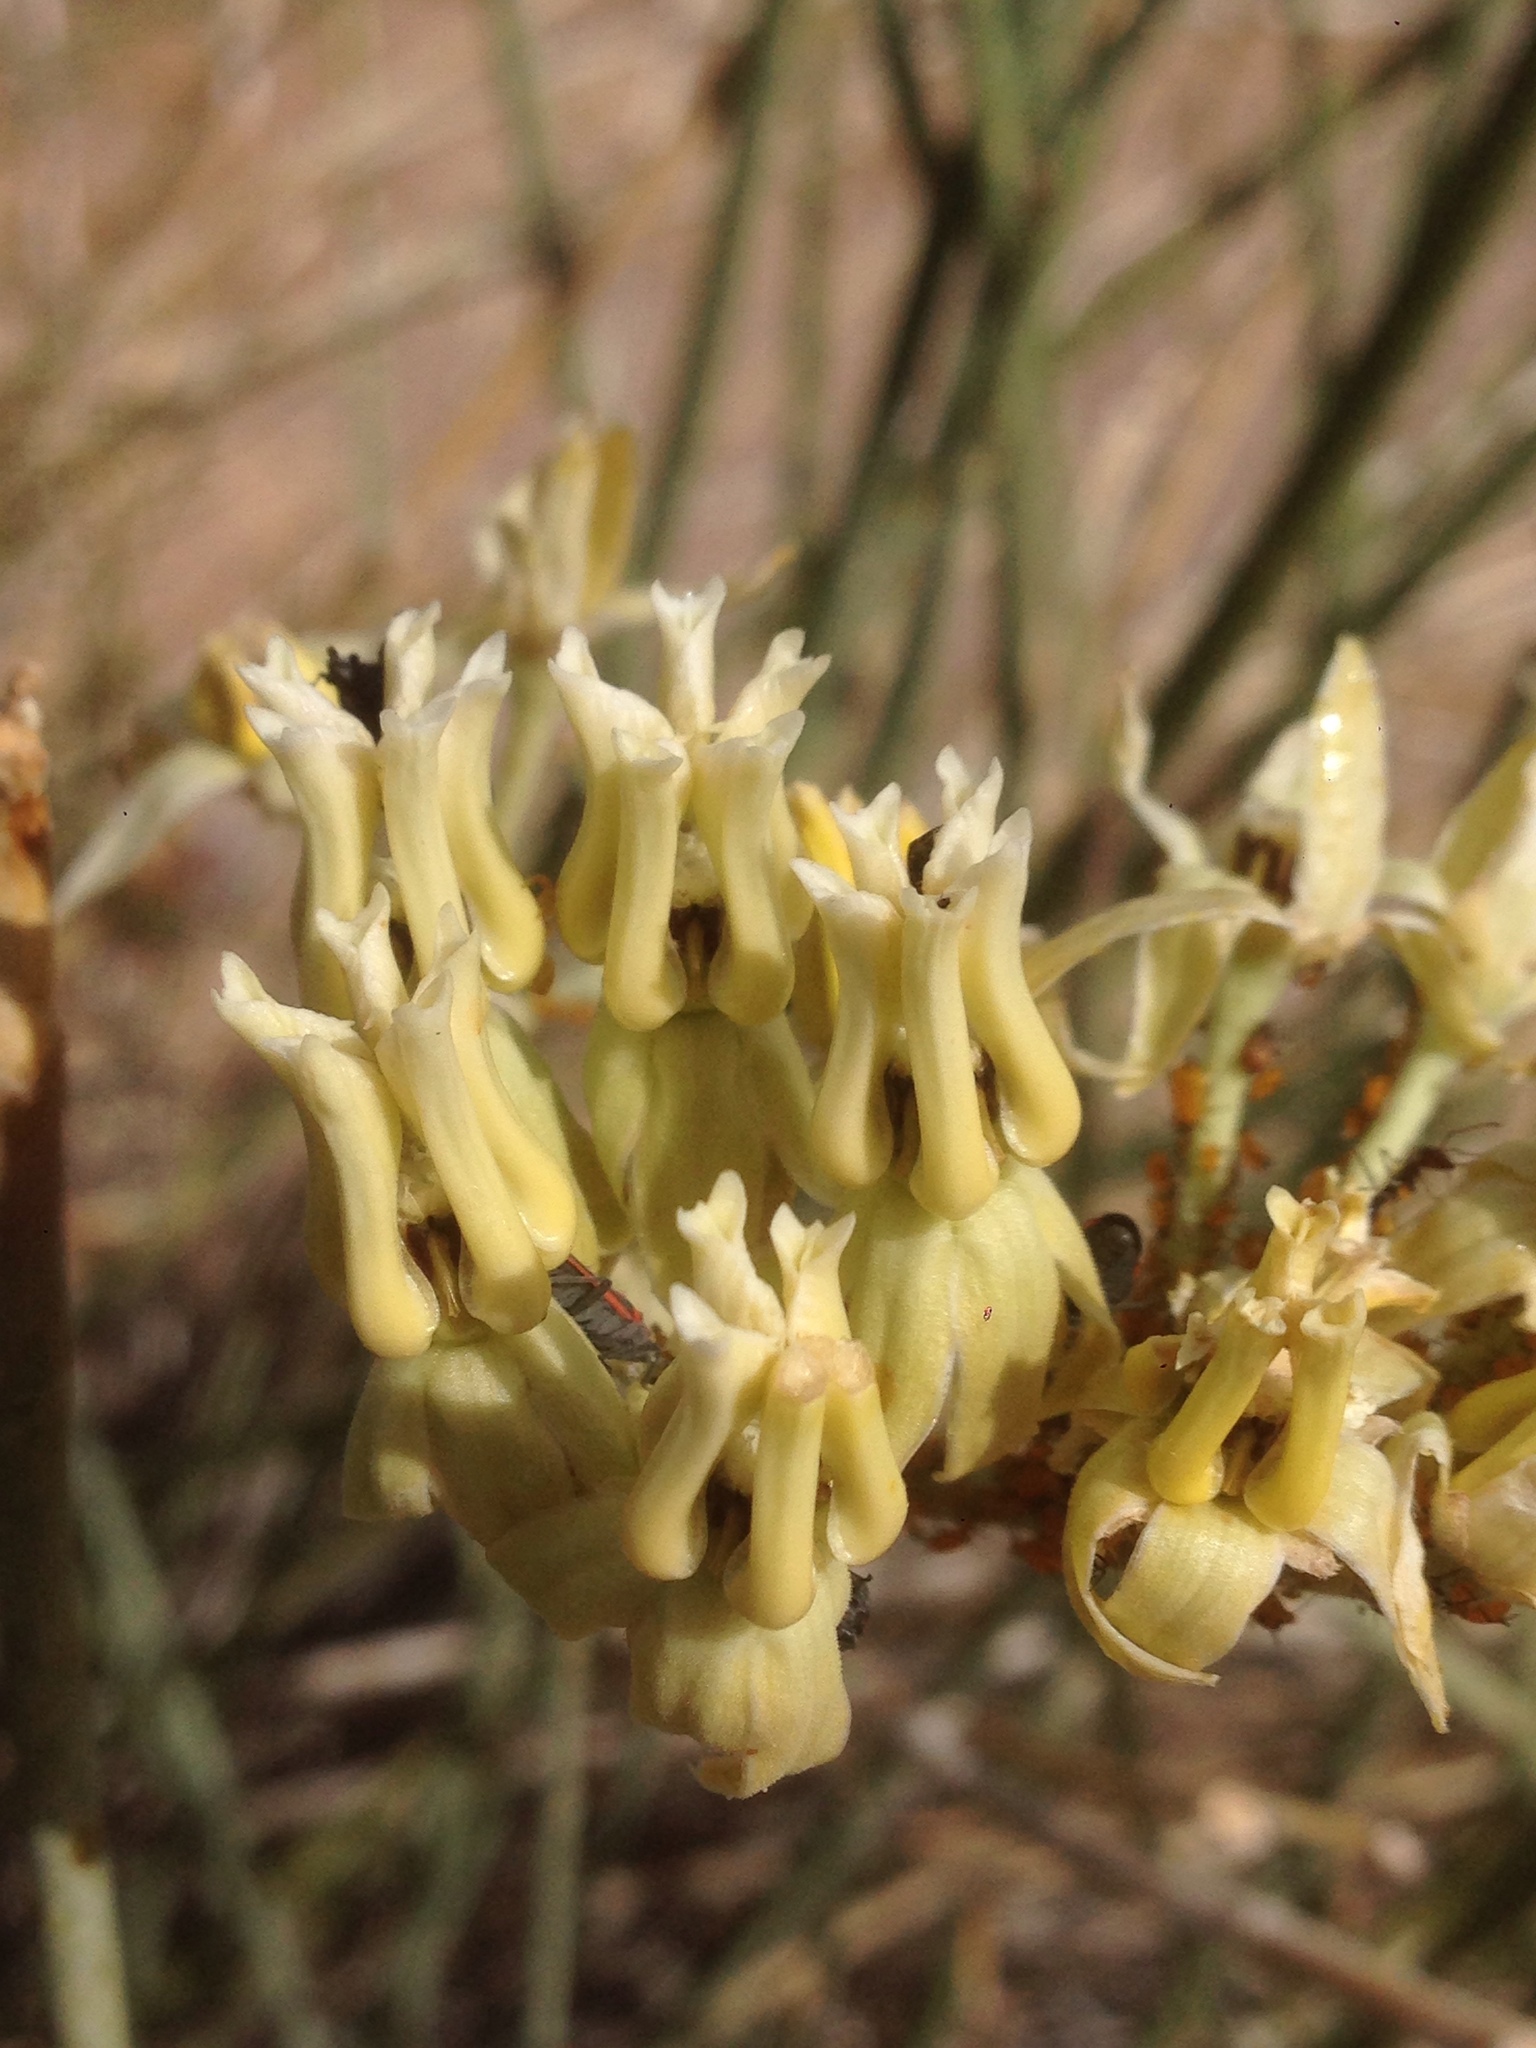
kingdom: Plantae
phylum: Tracheophyta
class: Magnoliopsida
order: Gentianales
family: Apocynaceae
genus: Asclepias
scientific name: Asclepias subulata
